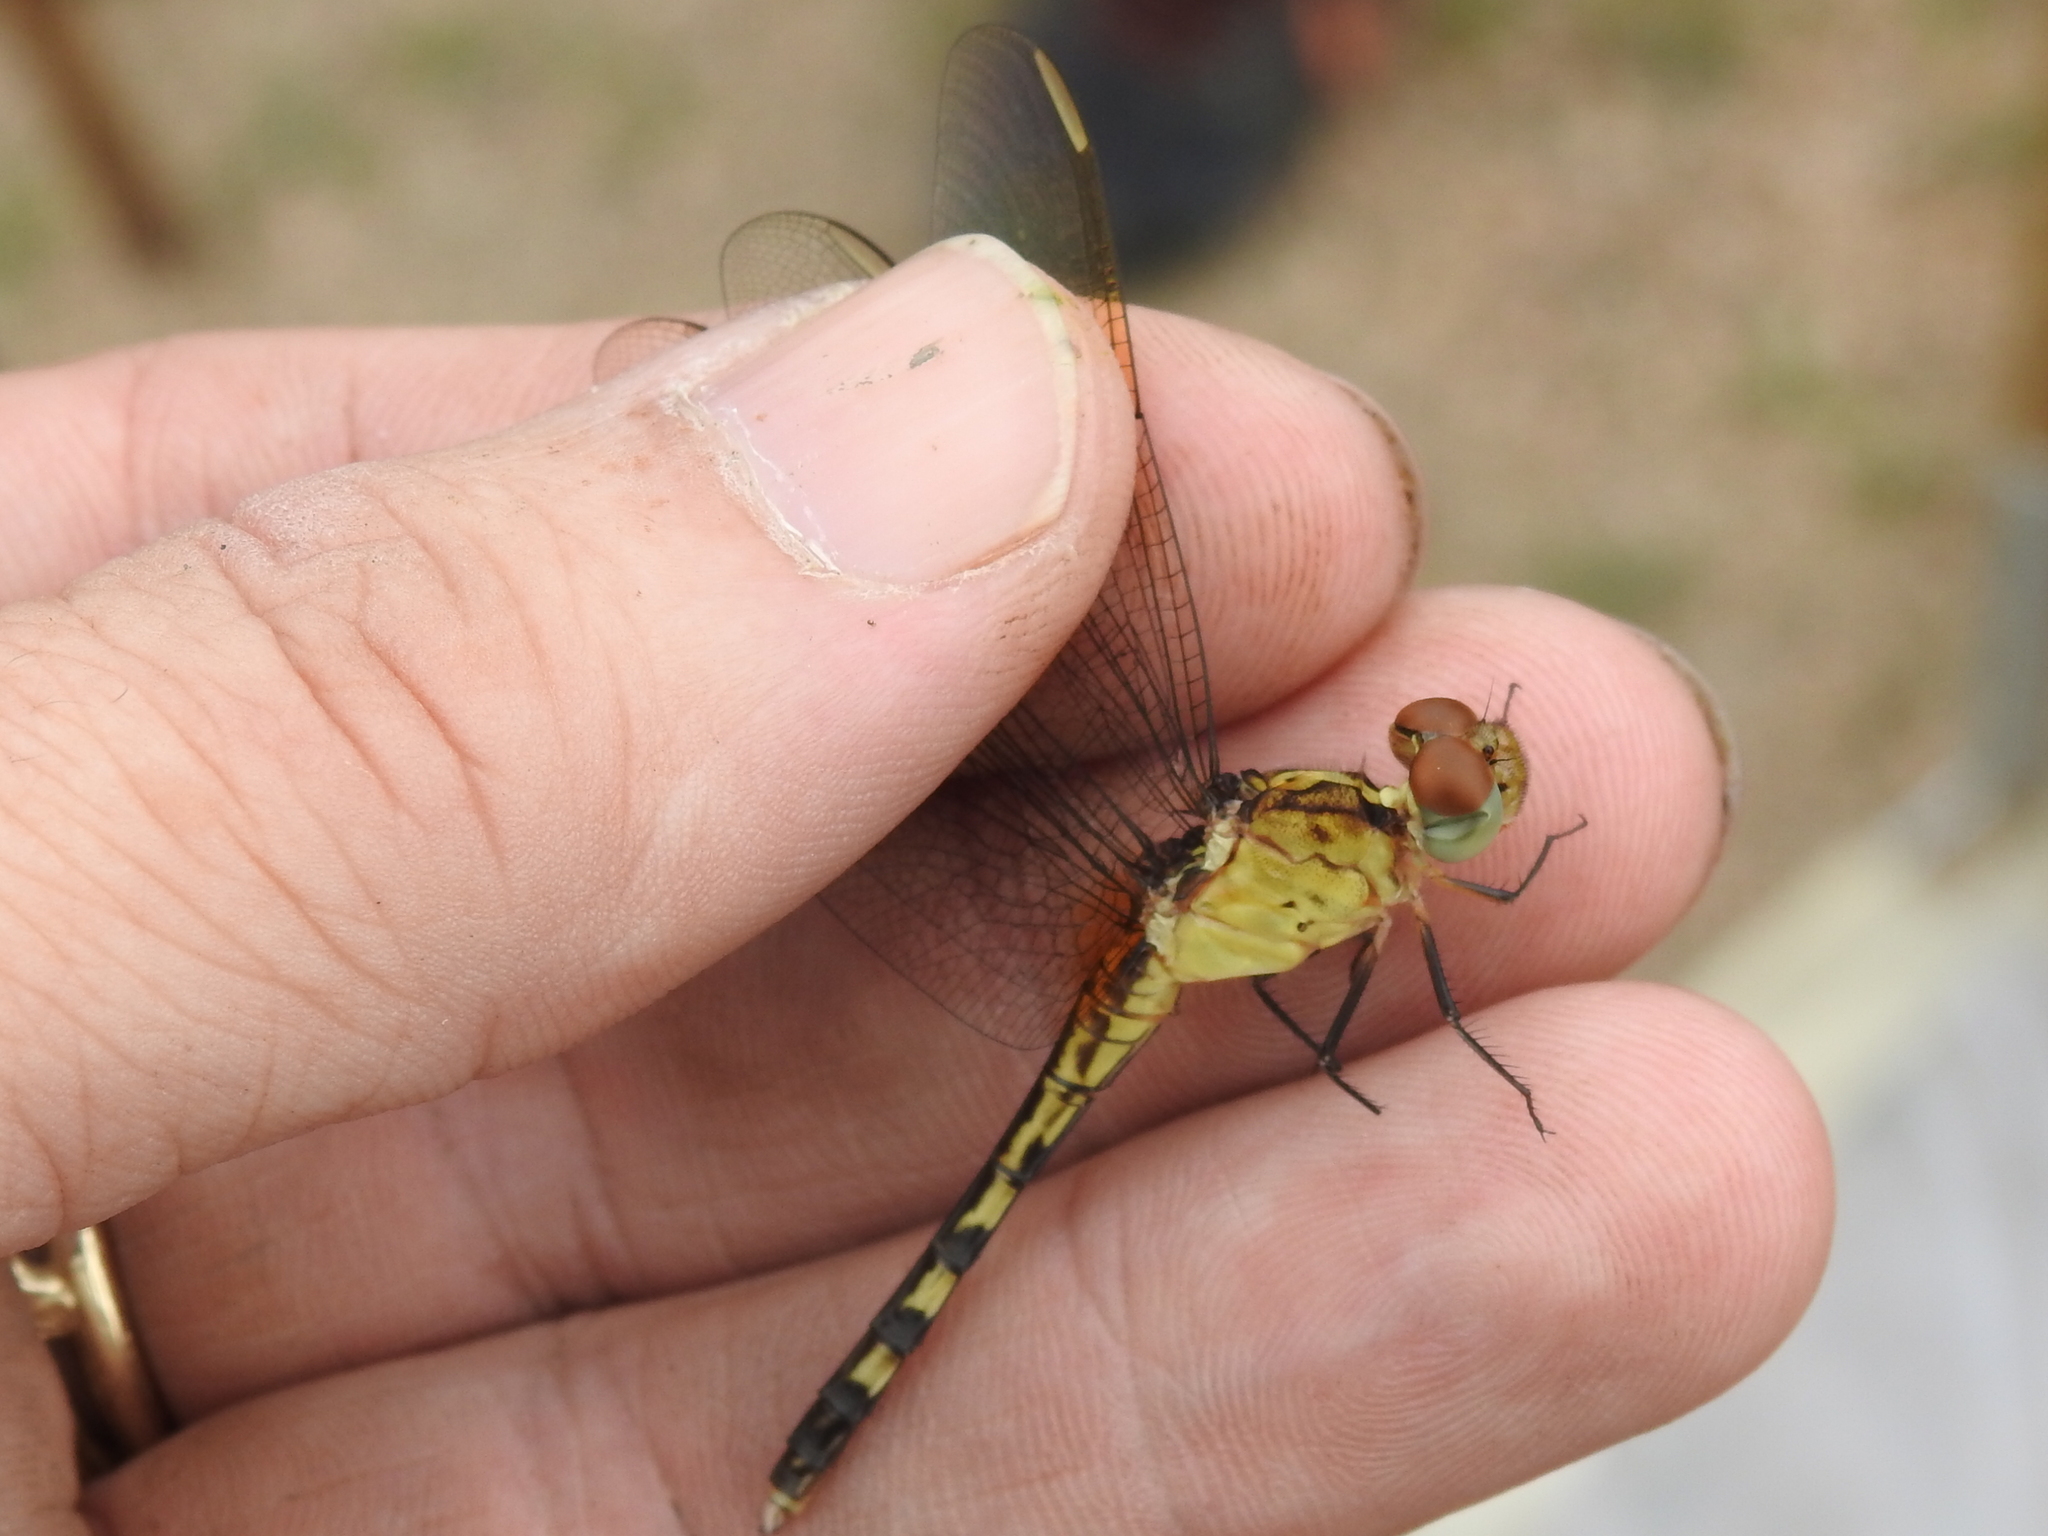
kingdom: Animalia
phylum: Arthropoda
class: Insecta
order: Odonata
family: Libellulidae
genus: Erythrodiplax
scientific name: Erythrodiplax umbrata
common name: Band-winged dragonlet
